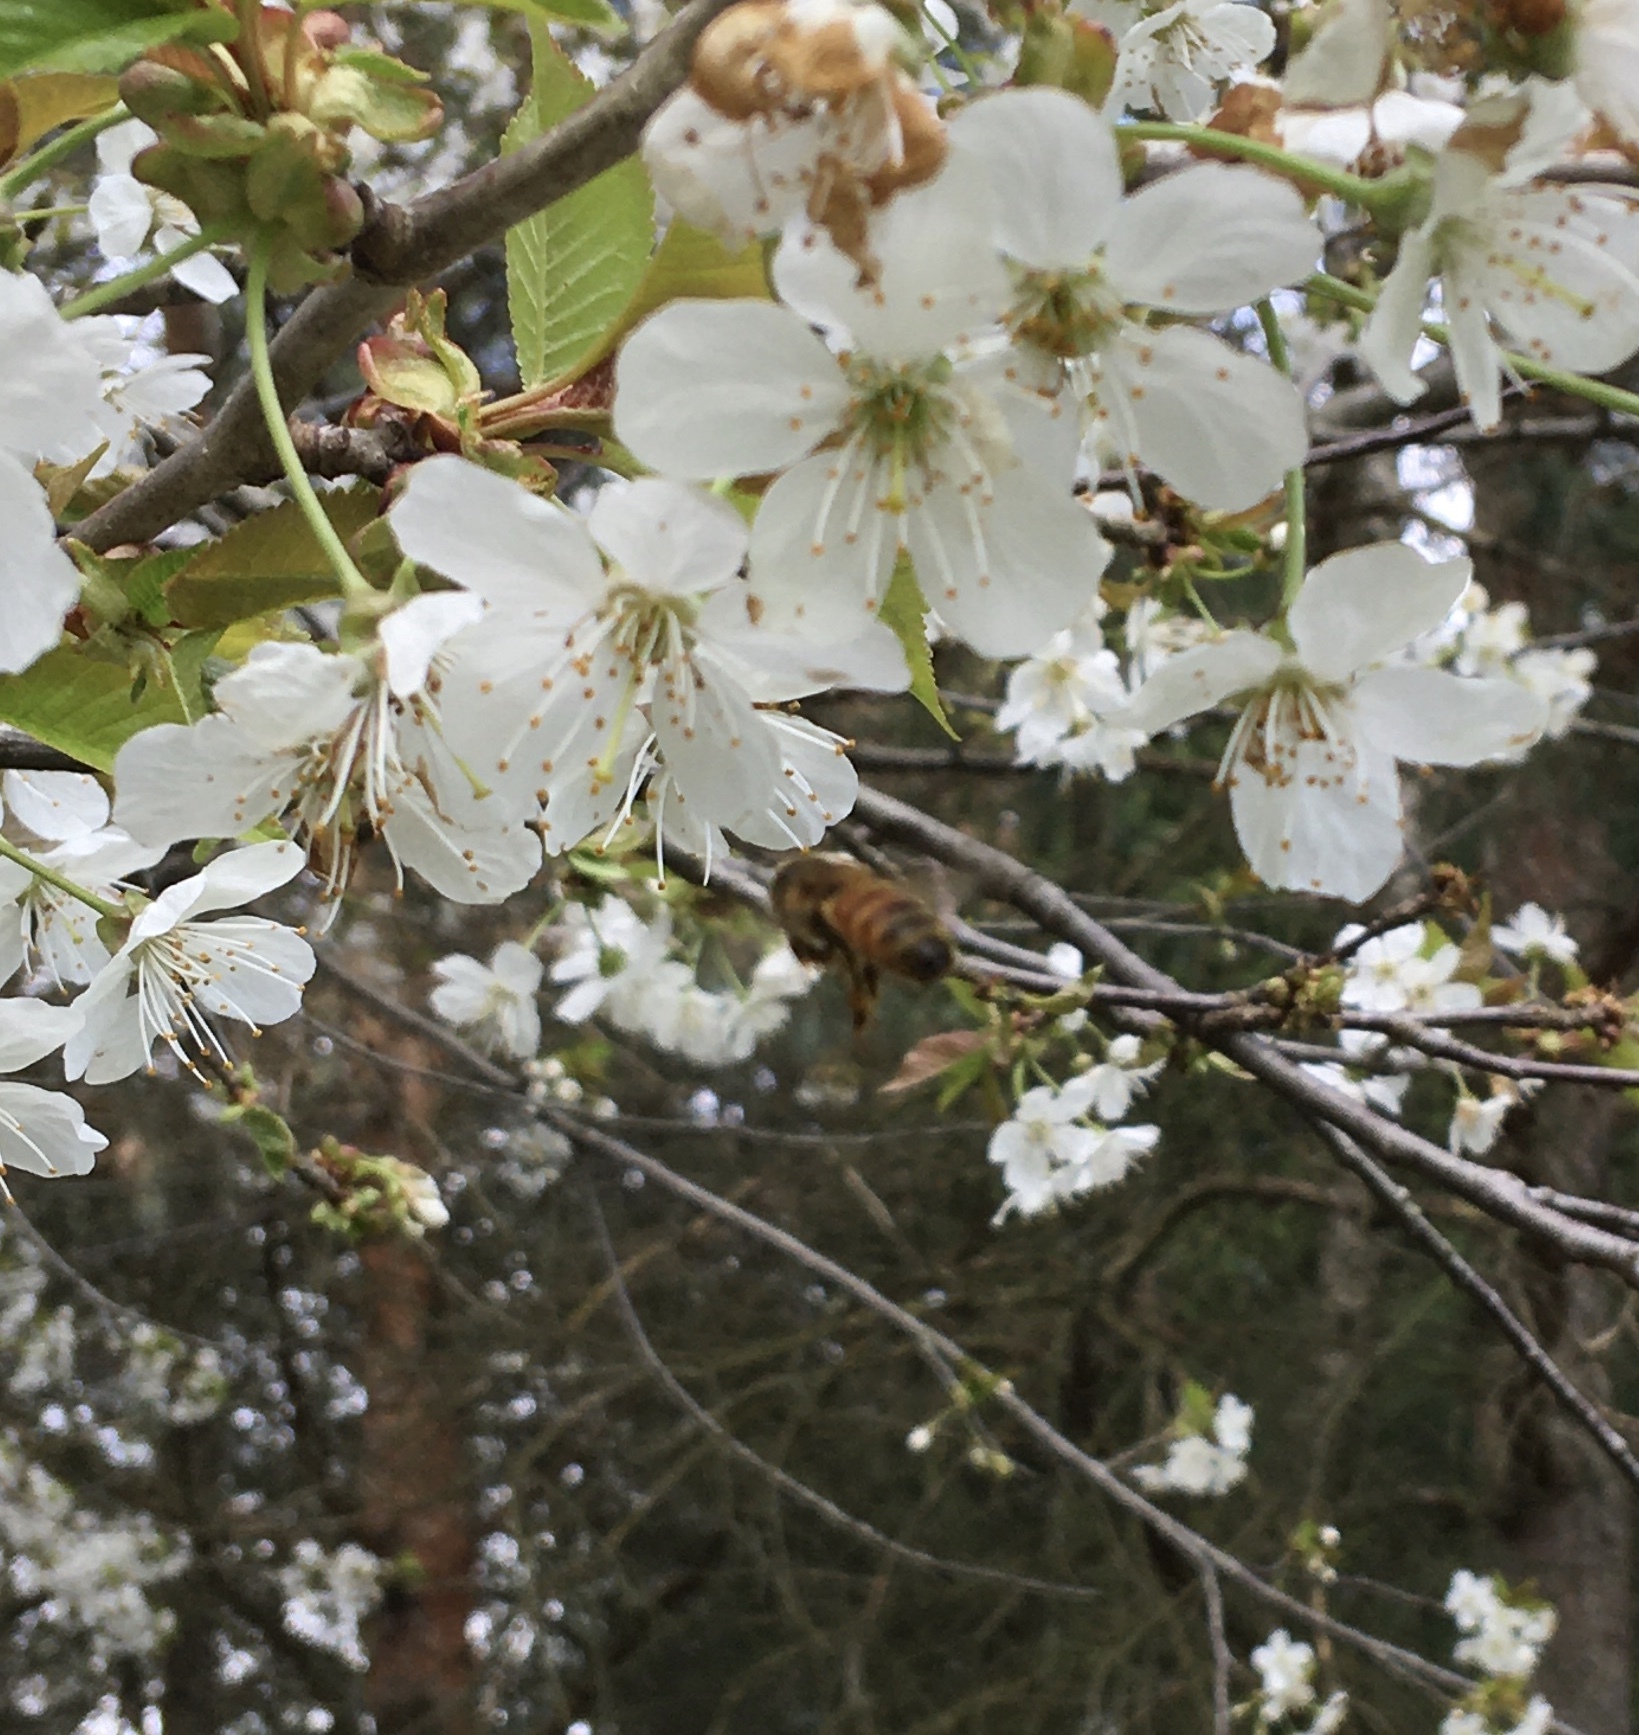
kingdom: Animalia
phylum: Arthropoda
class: Insecta
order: Hymenoptera
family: Apidae
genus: Apis
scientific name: Apis mellifera
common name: Honey bee
